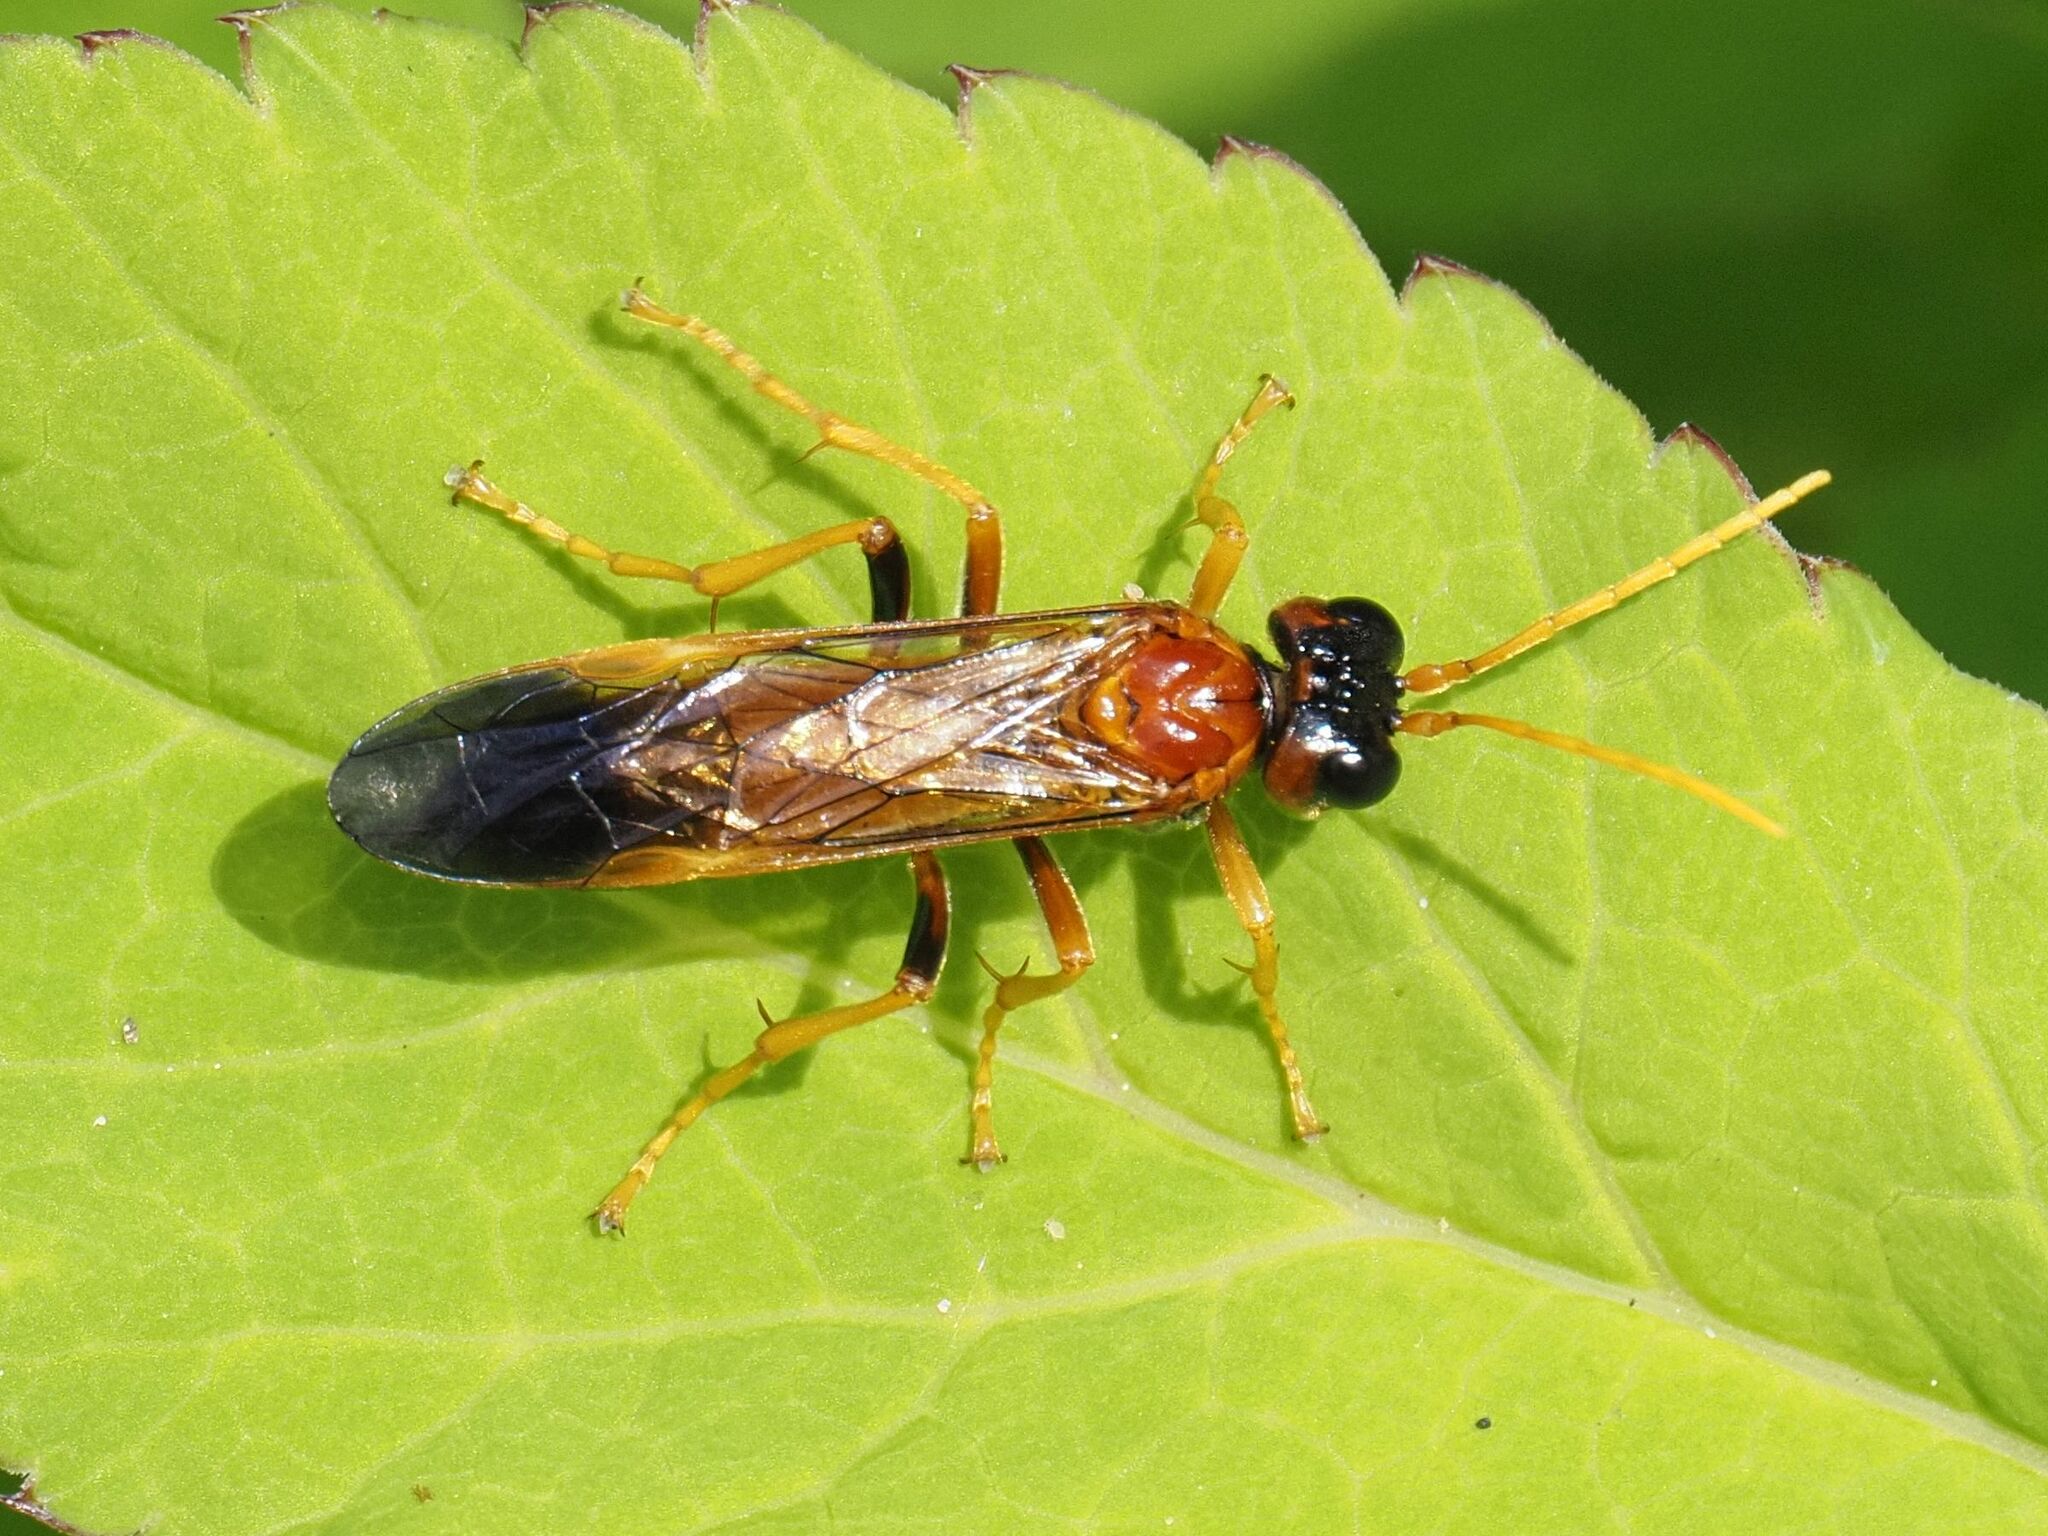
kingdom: Animalia
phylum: Arthropoda
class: Insecta
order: Hymenoptera
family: Tenthredinidae
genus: Tenthredo
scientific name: Tenthredo campestris
